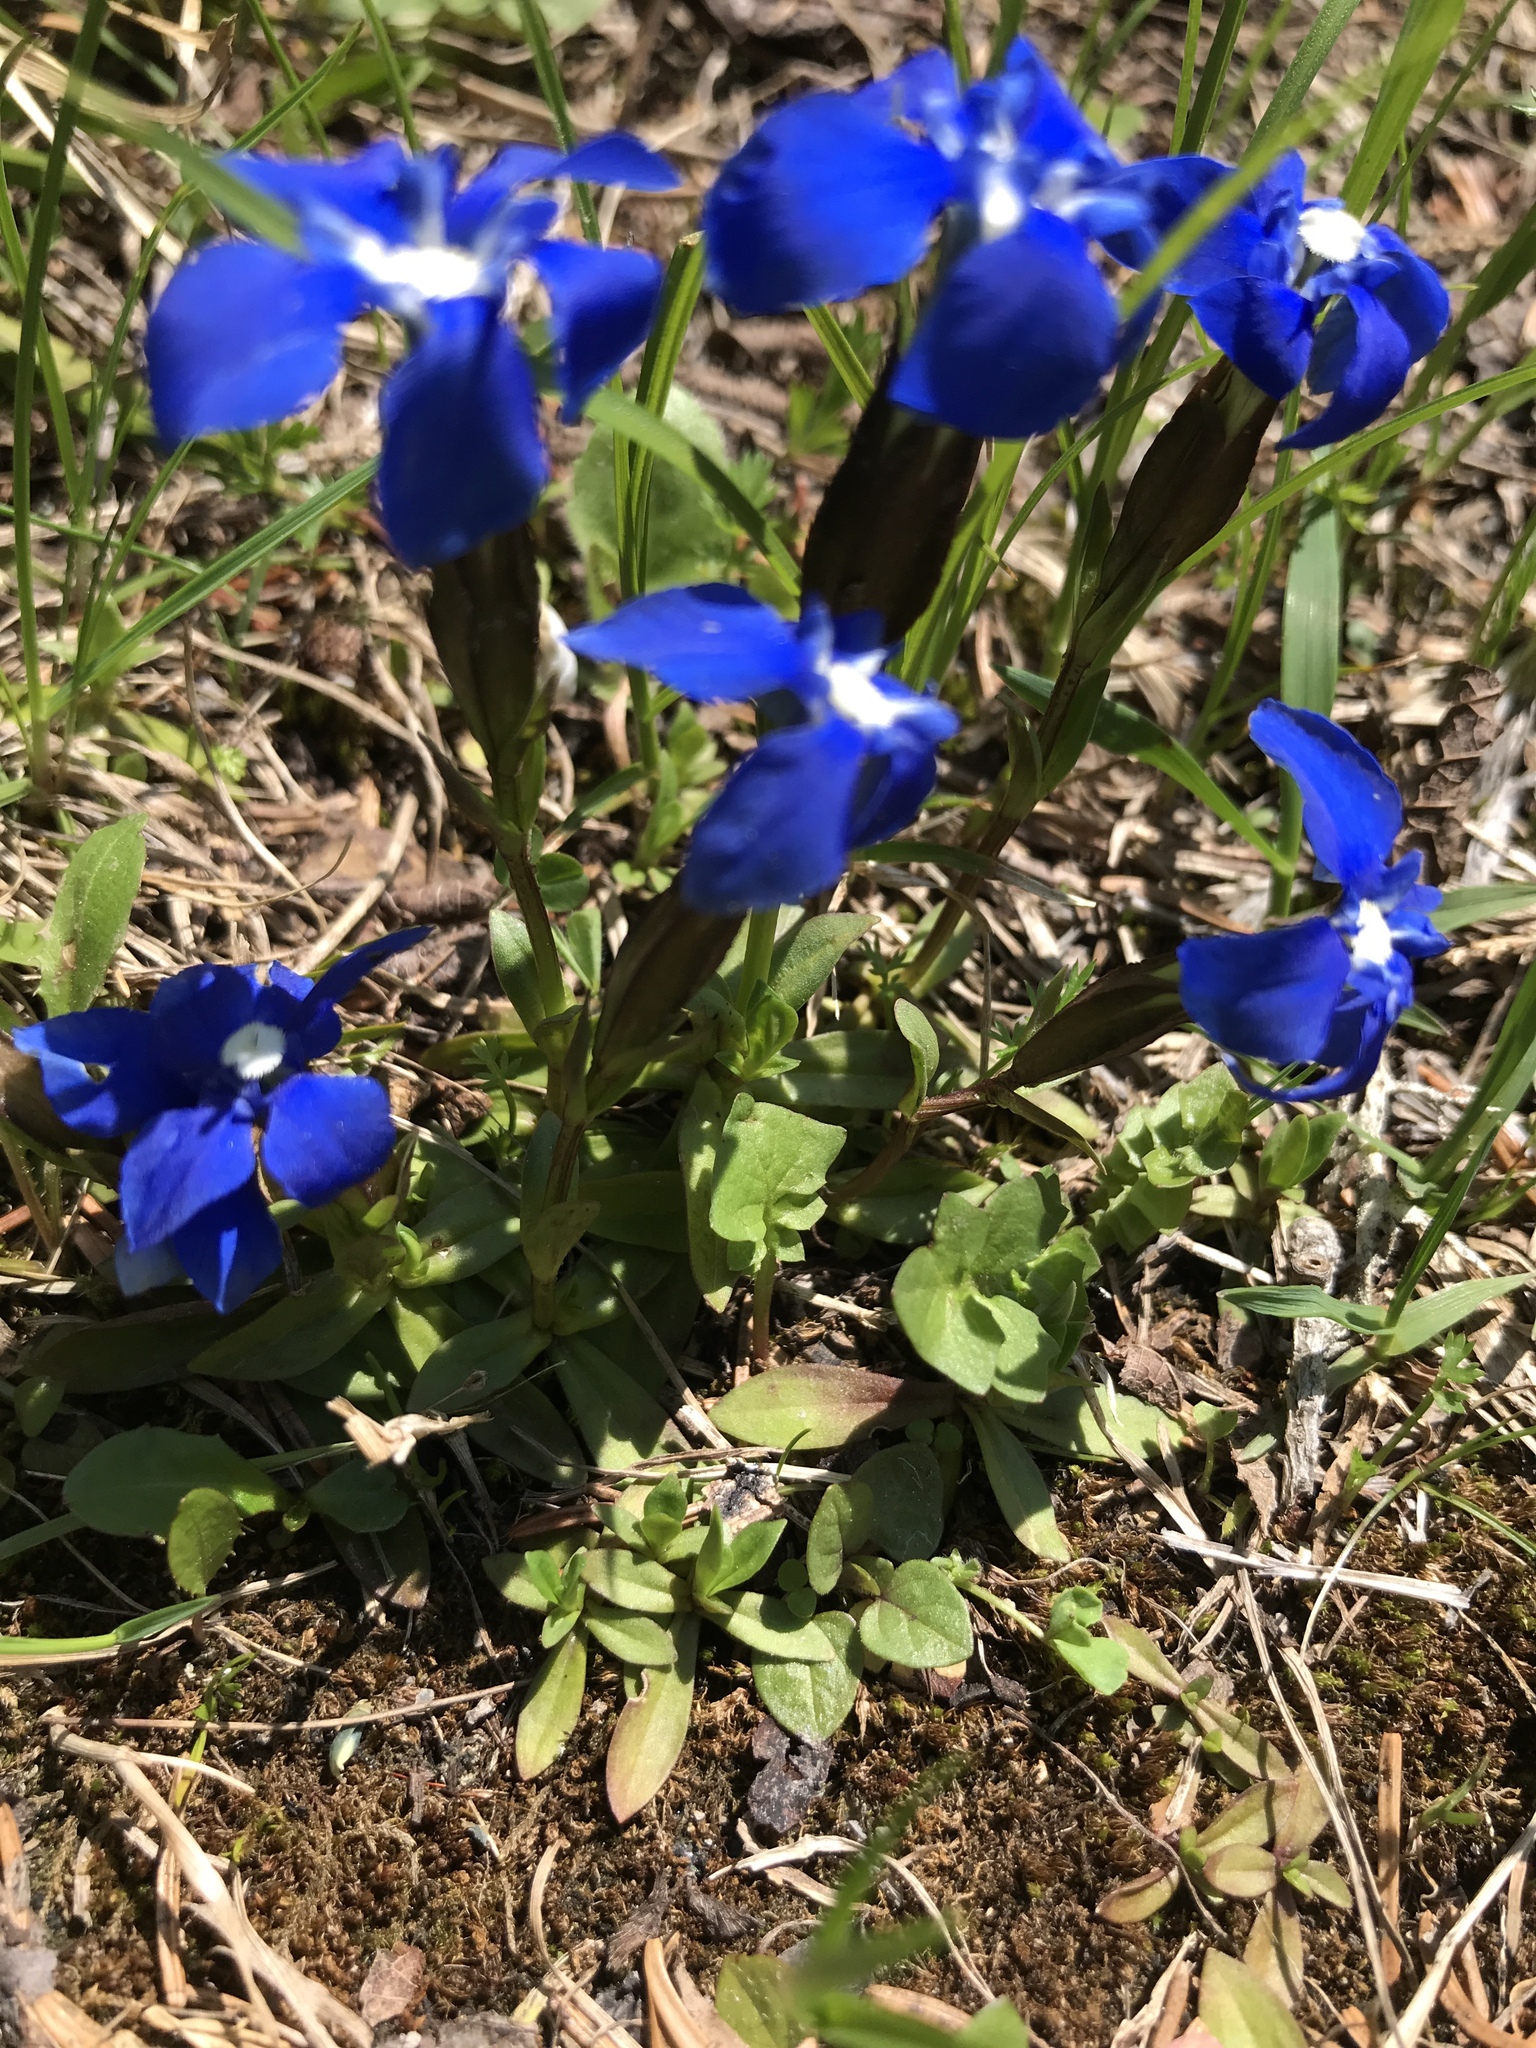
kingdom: Plantae
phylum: Tracheophyta
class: Magnoliopsida
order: Gentianales
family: Gentianaceae
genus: Gentiana
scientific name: Gentiana verna
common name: Spring gentian
